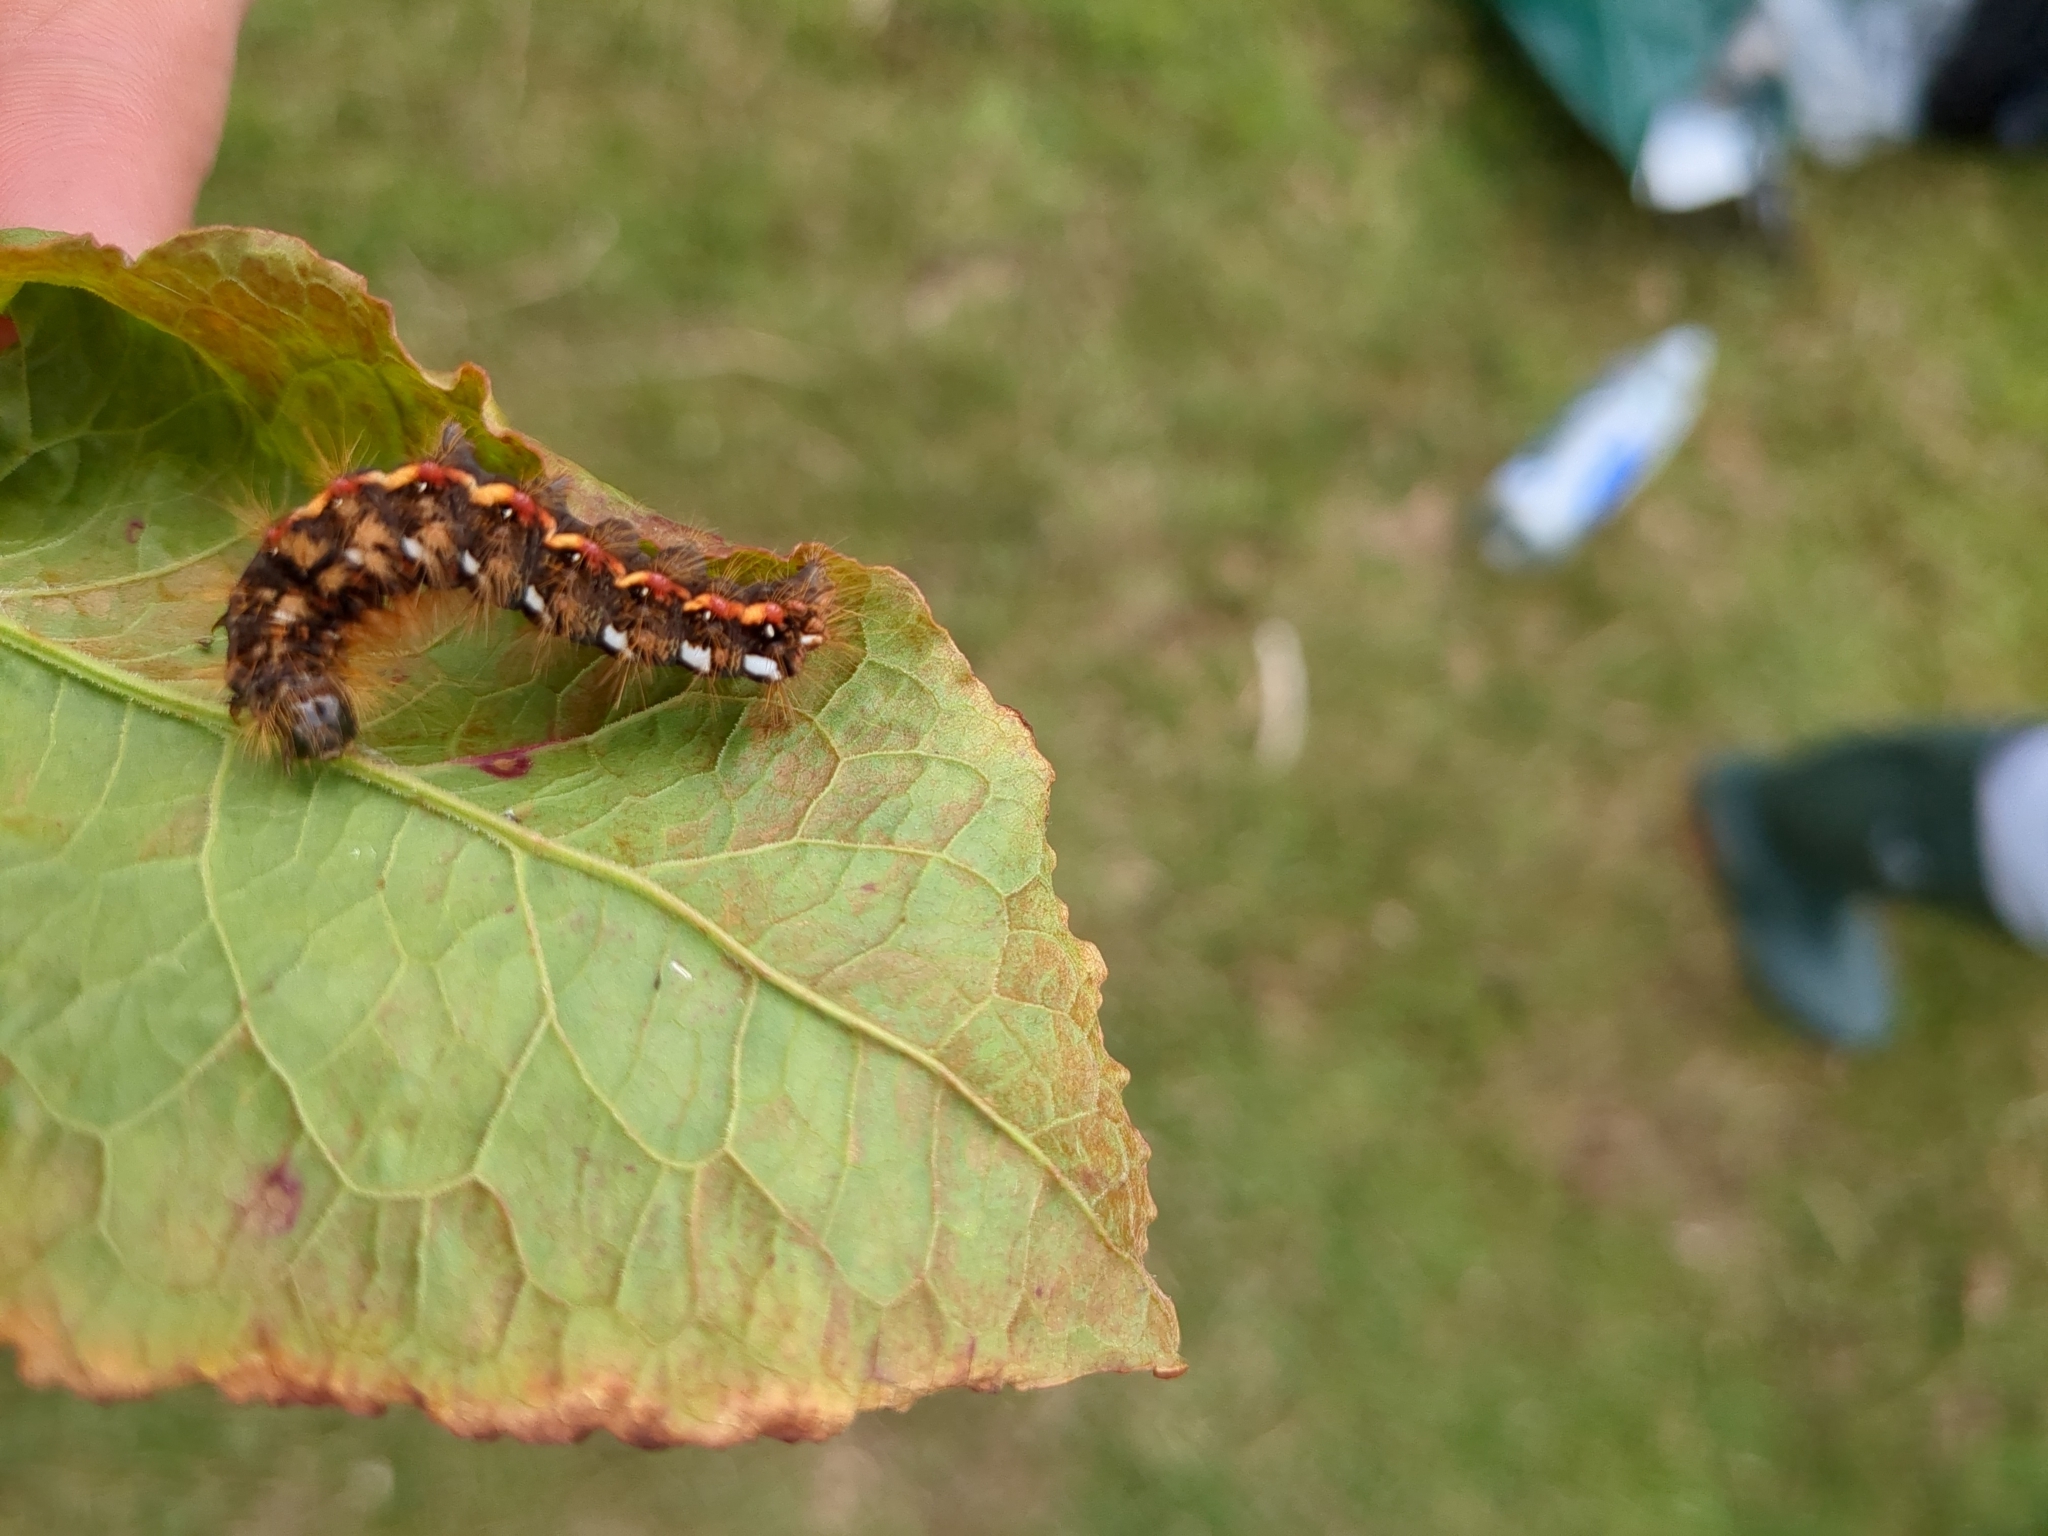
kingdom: Animalia
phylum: Arthropoda
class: Insecta
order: Lepidoptera
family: Noctuidae
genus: Acronicta
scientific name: Acronicta rumicis
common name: Knot grass
